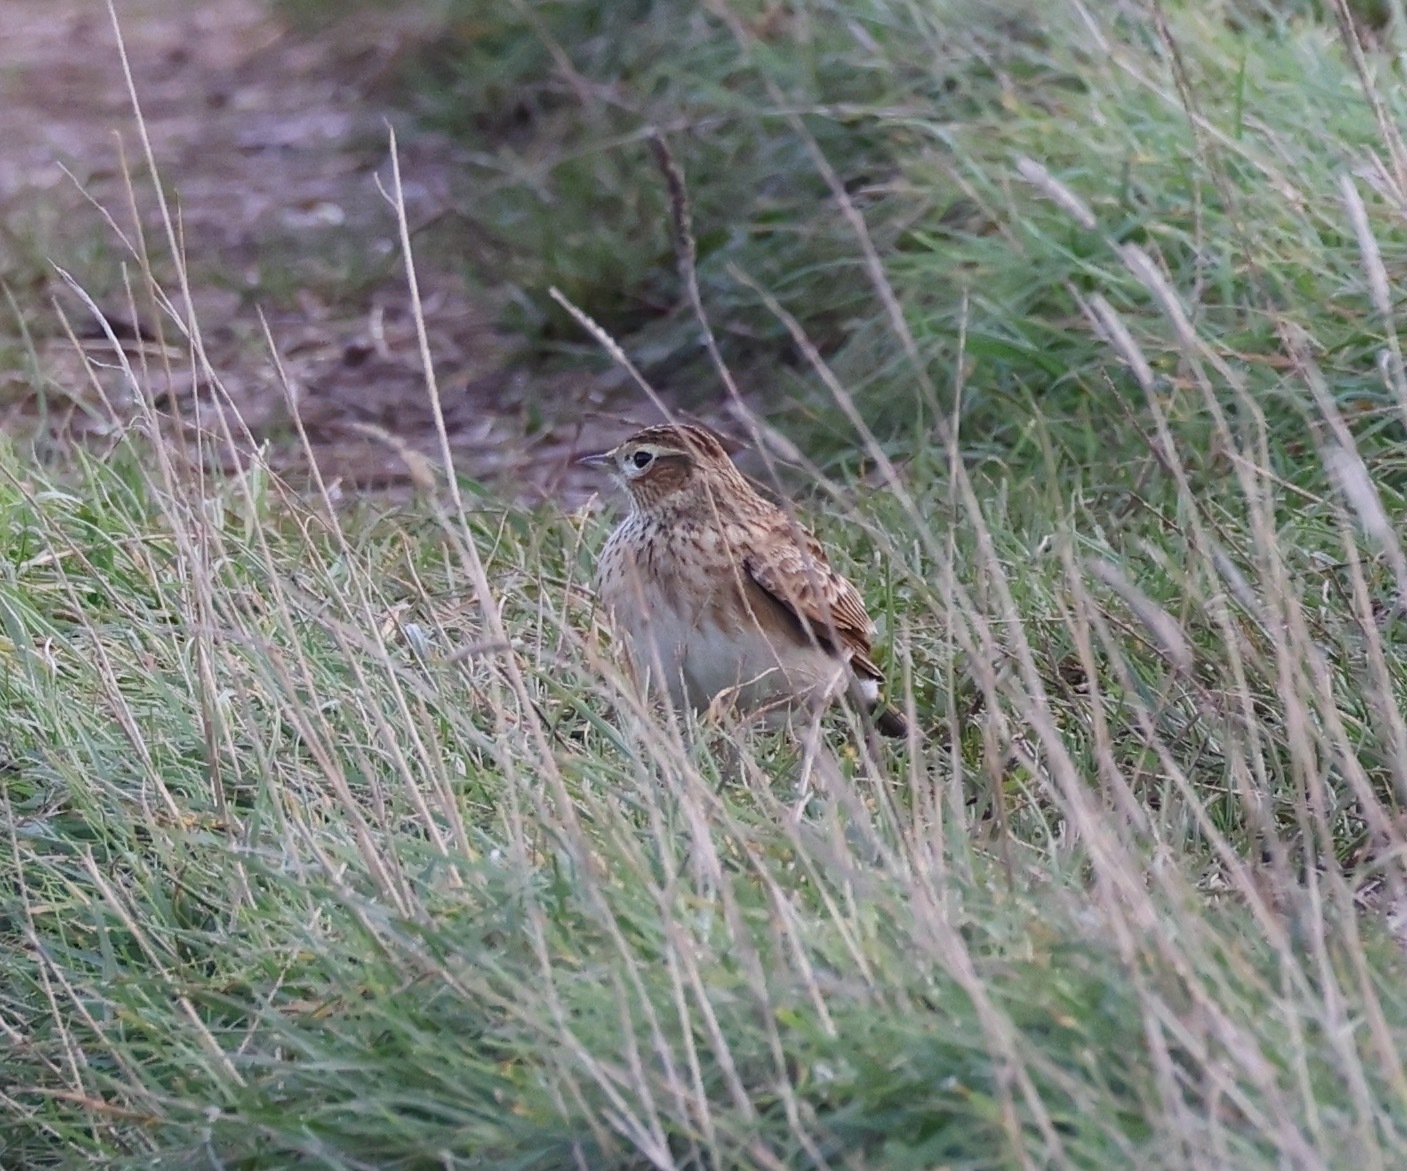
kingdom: Animalia
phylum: Chordata
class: Aves
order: Passeriformes
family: Alaudidae
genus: Alauda
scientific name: Alauda arvensis
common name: Eurasian skylark
